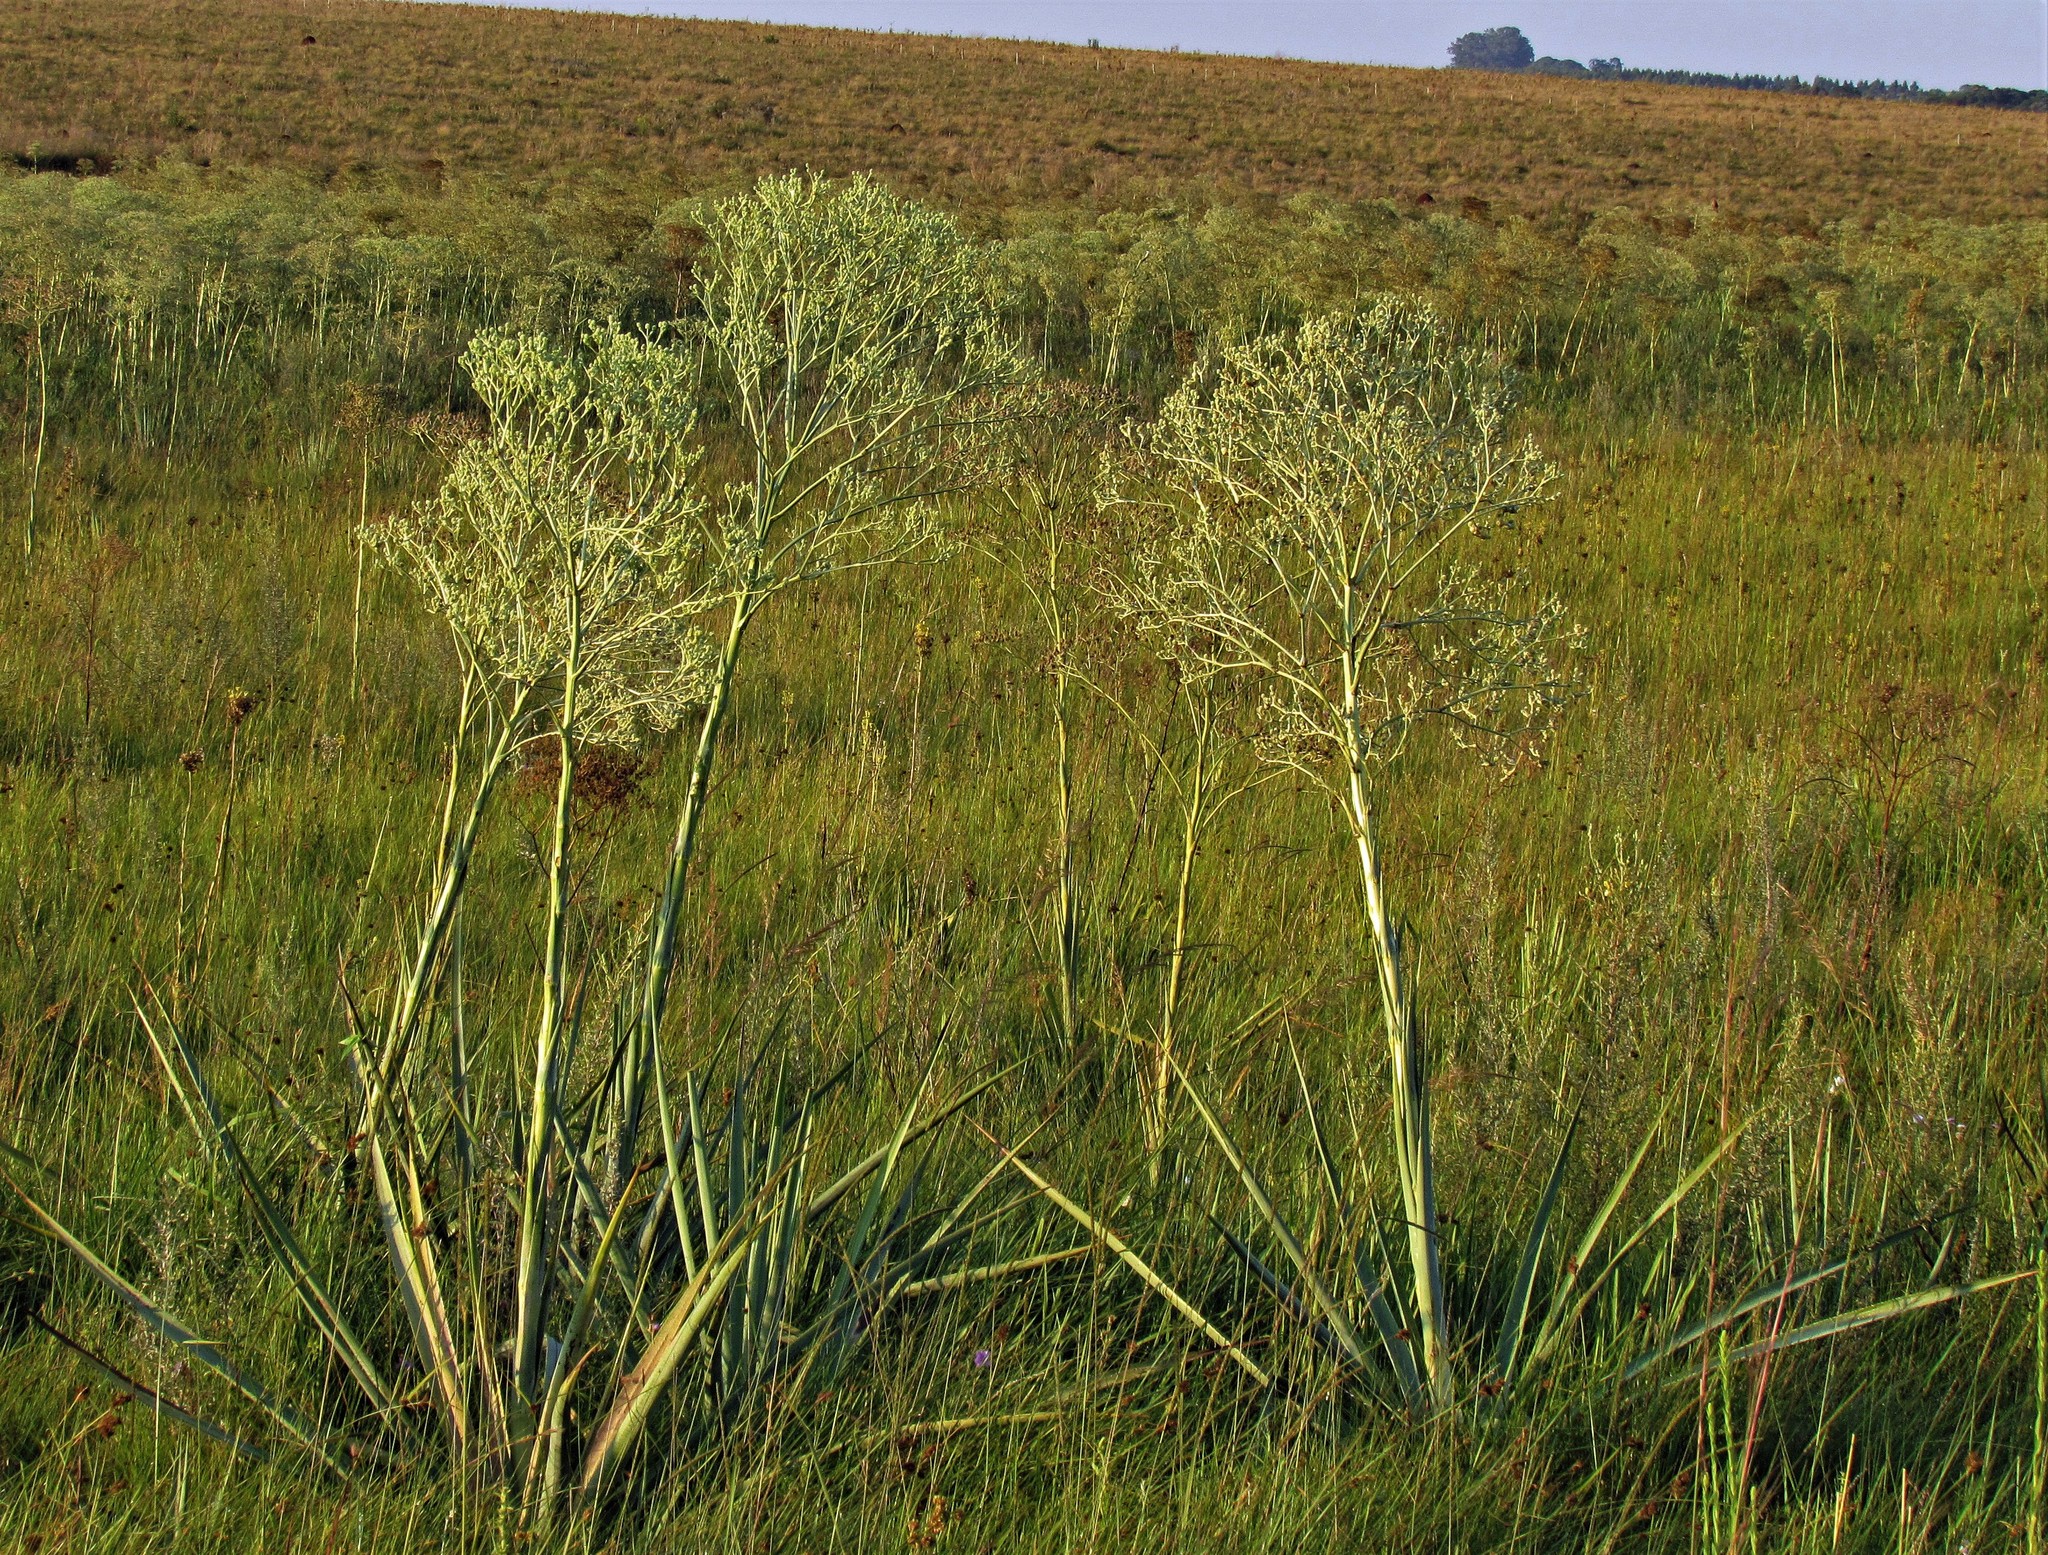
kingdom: Plantae
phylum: Tracheophyta
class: Magnoliopsida
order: Apiales
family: Apiaceae
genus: Eryngium
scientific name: Eryngium pandanifolium
